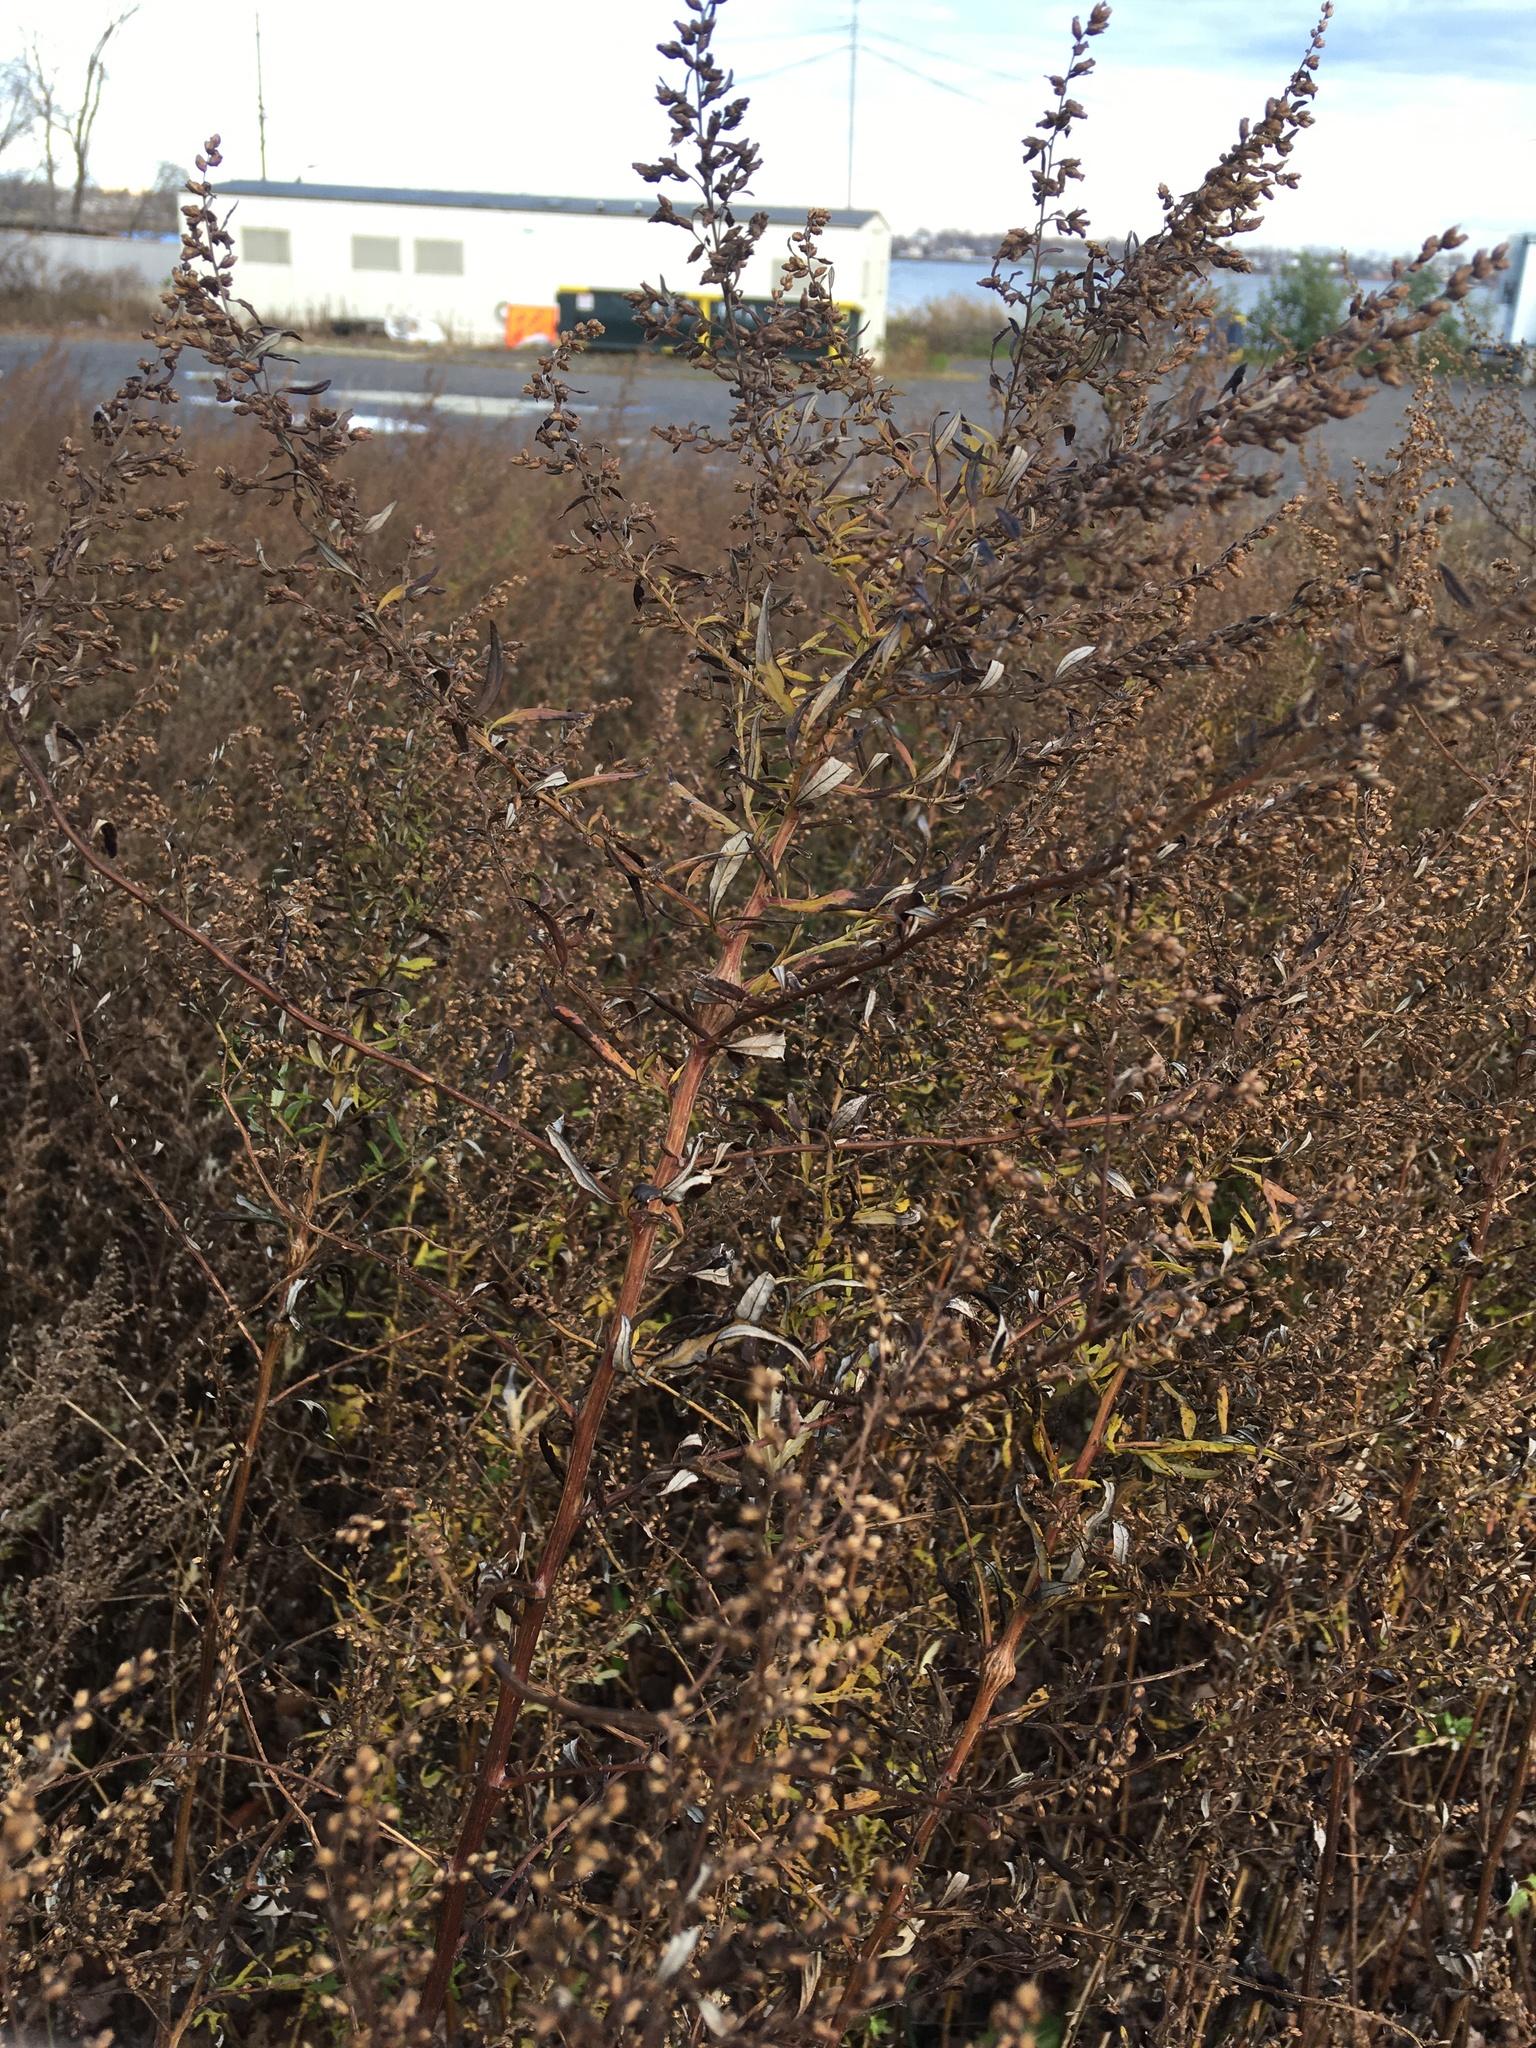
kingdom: Plantae
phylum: Tracheophyta
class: Magnoliopsida
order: Asterales
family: Asteraceae
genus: Artemisia
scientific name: Artemisia vulgaris
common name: Mugwort
